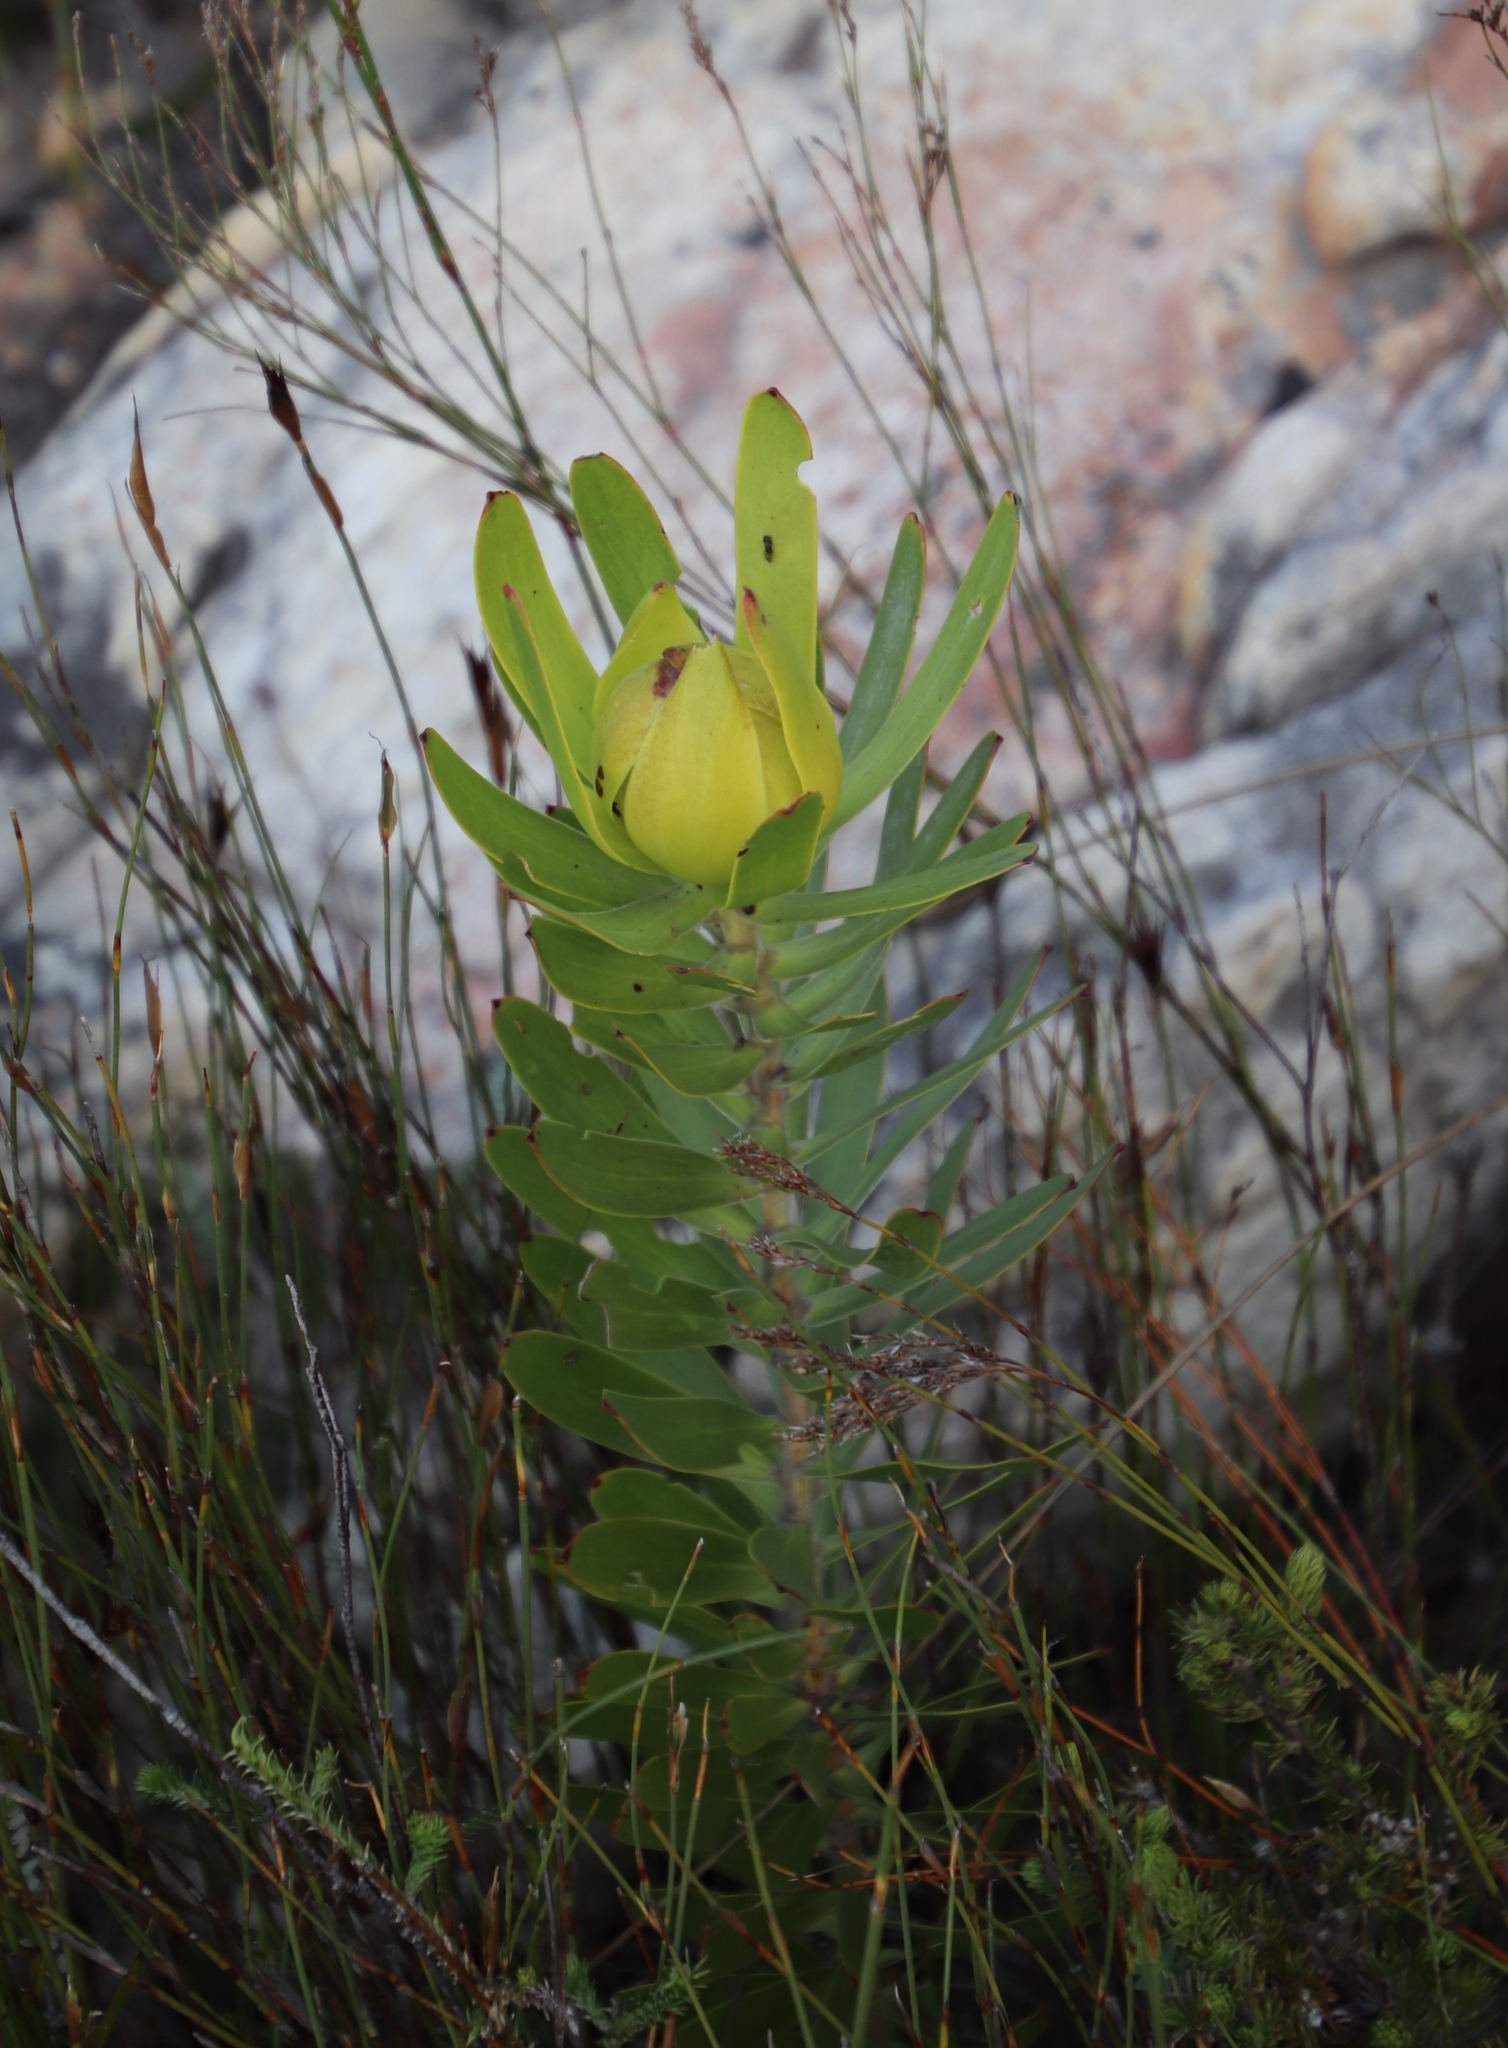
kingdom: Plantae
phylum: Tracheophyta
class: Magnoliopsida
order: Proteales
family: Proteaceae
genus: Leucadendron
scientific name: Leucadendron laureolum
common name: Golden sunshinebush
